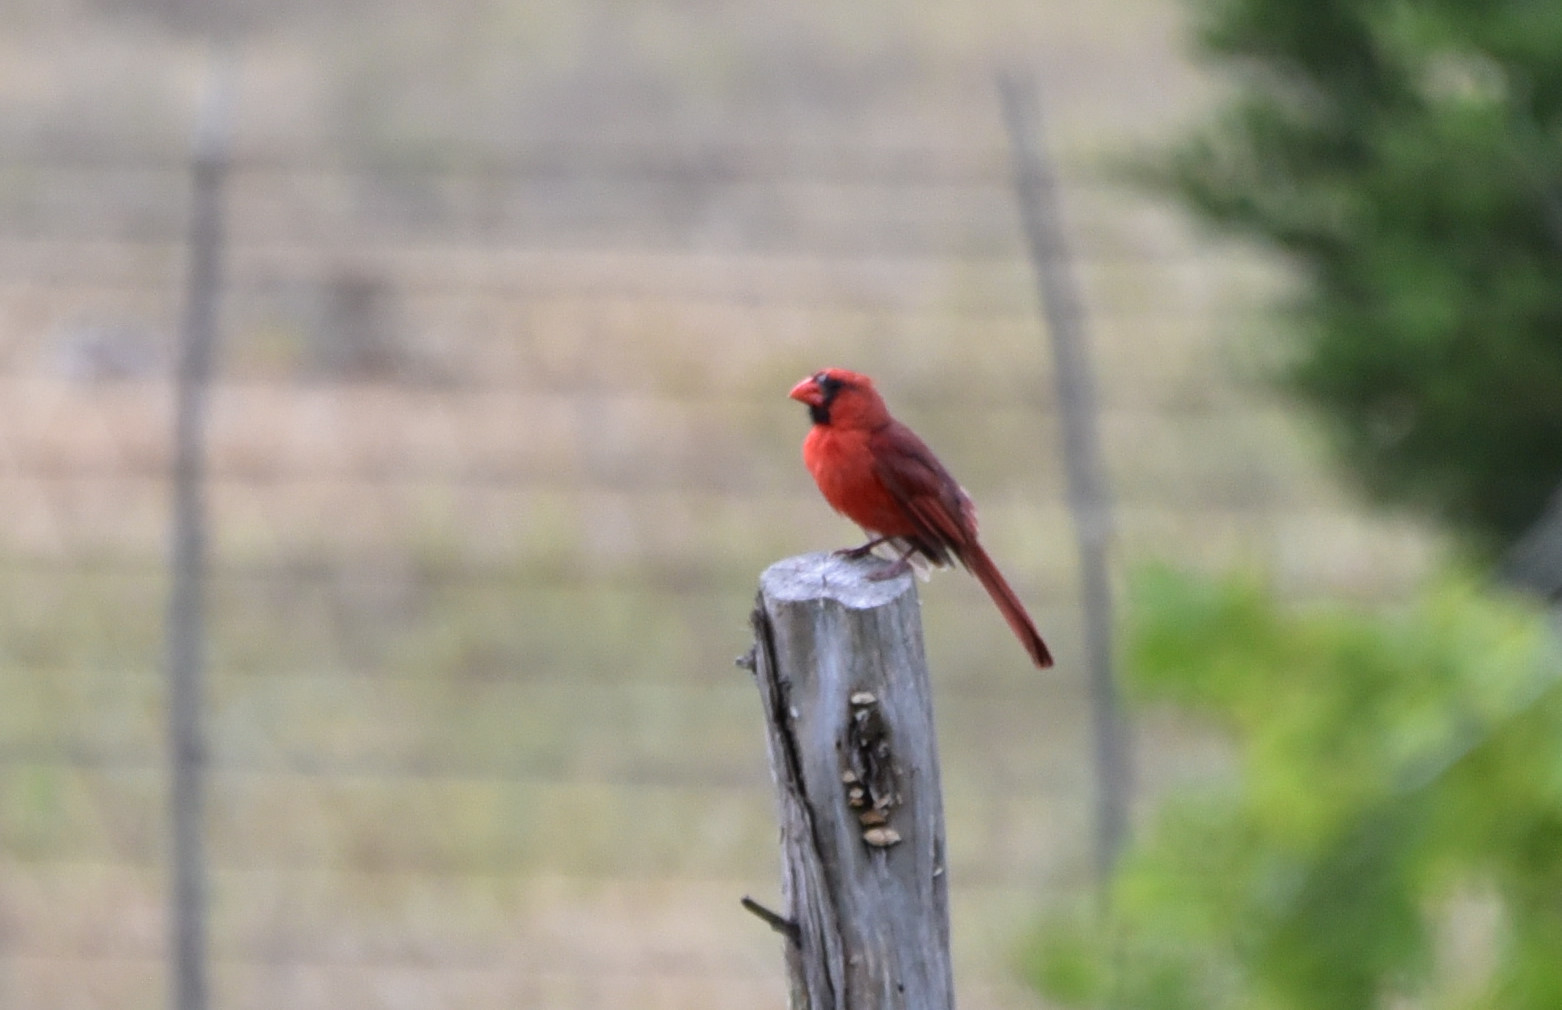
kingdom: Animalia
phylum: Chordata
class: Aves
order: Passeriformes
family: Cardinalidae
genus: Cardinalis
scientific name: Cardinalis cardinalis
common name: Northern cardinal
